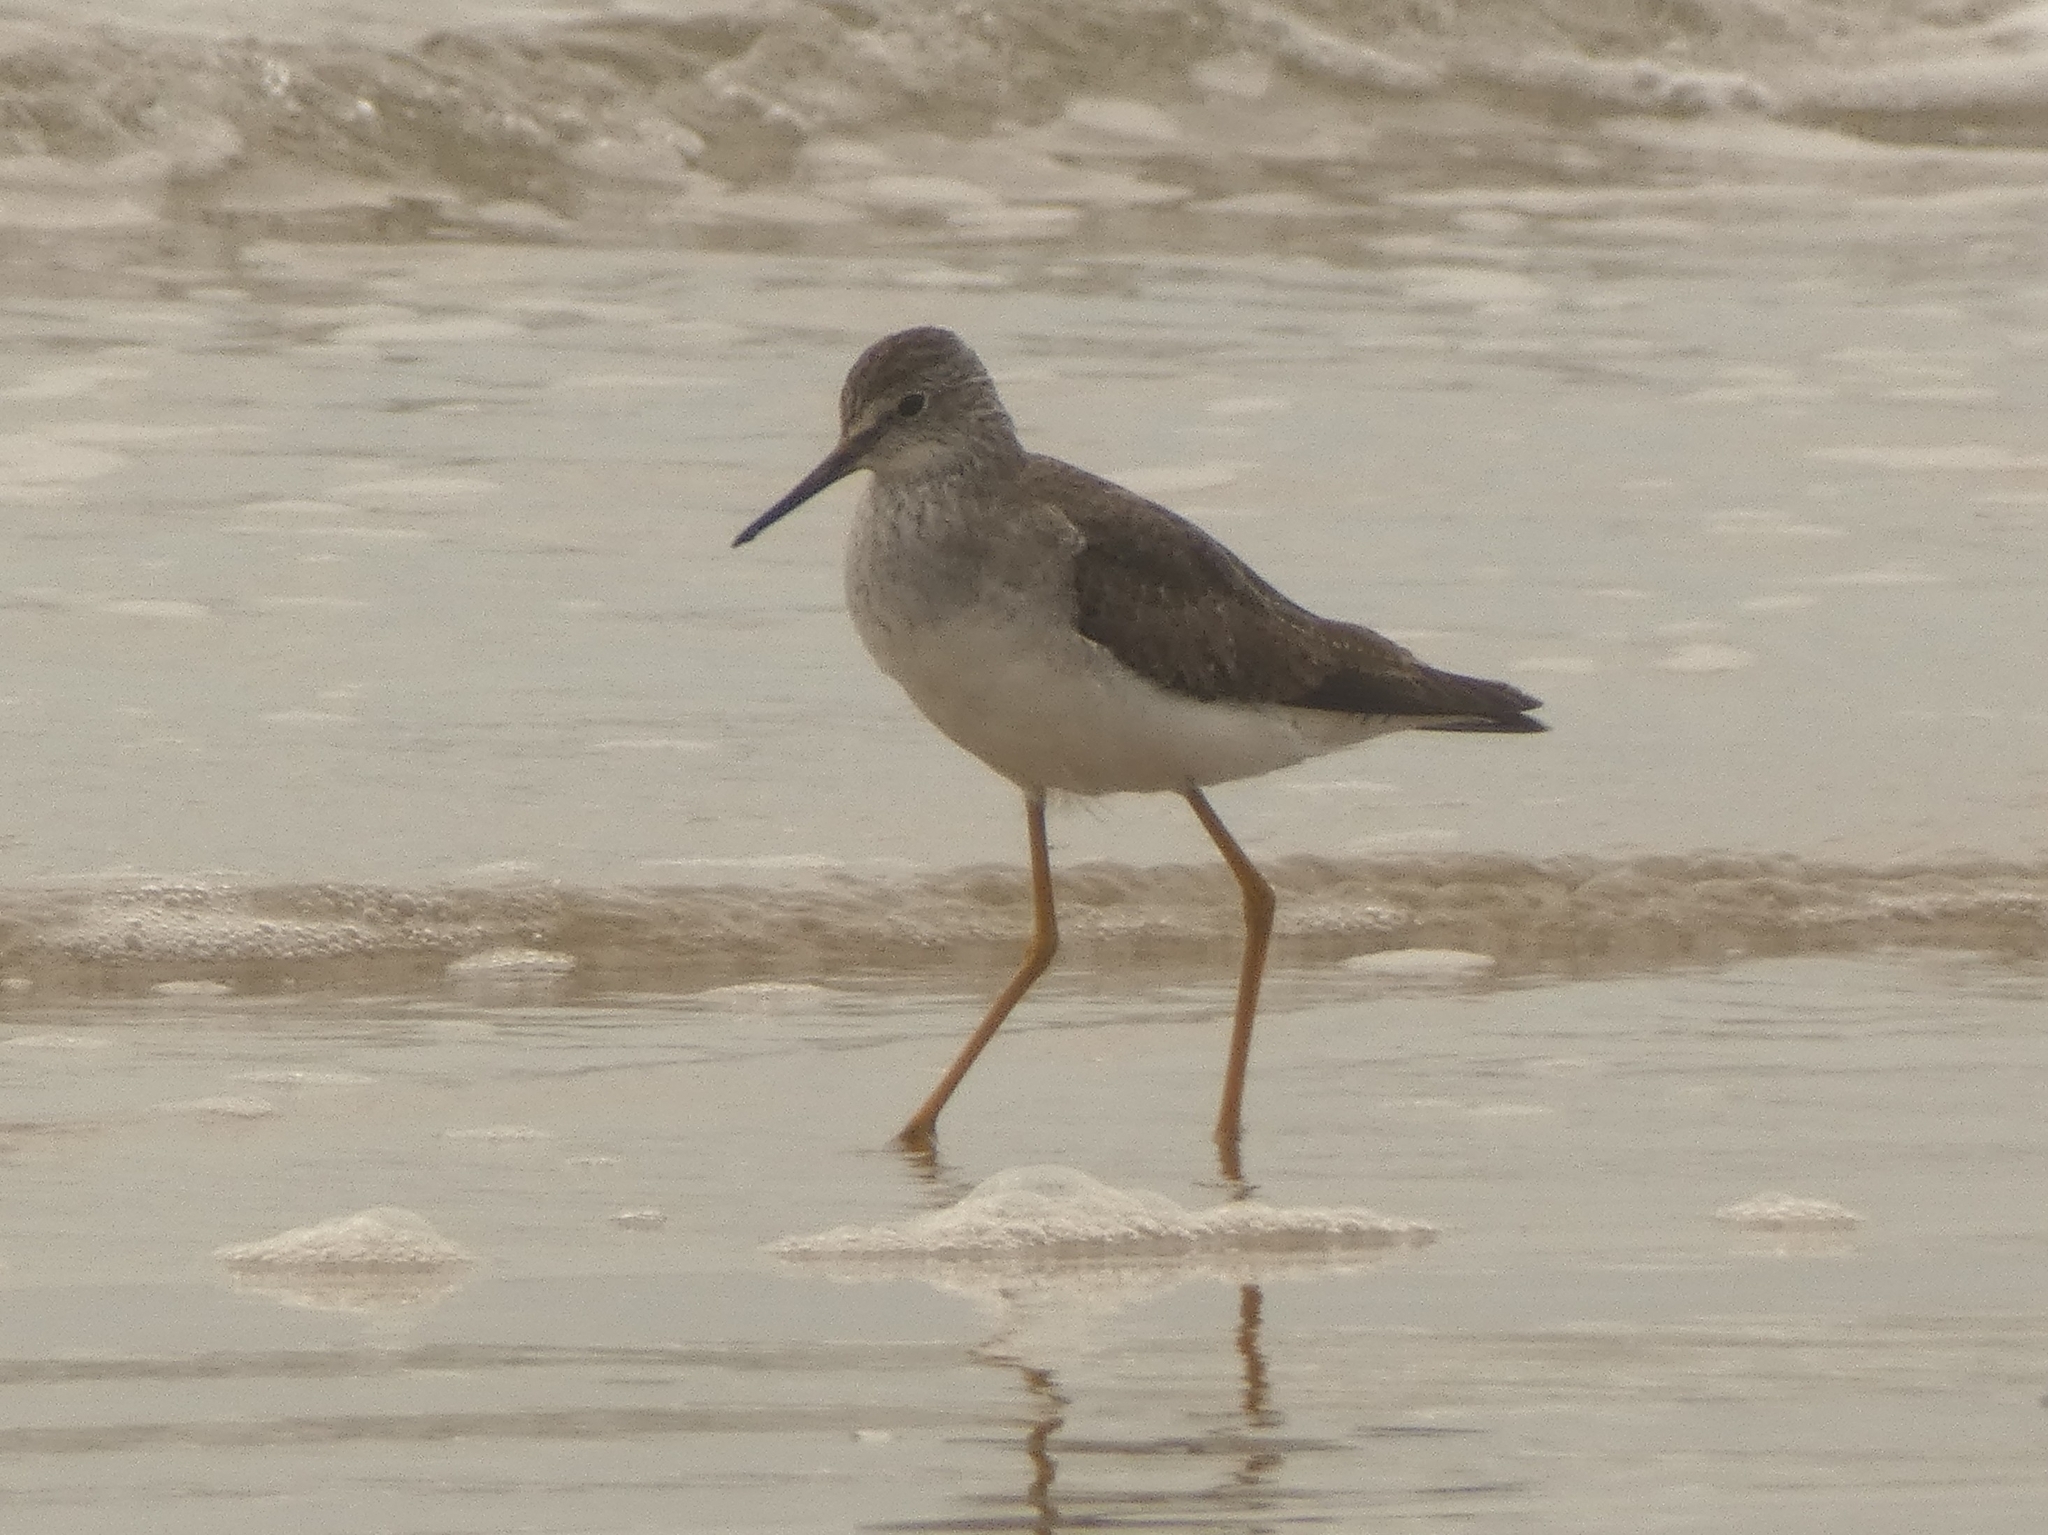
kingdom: Animalia
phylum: Chordata
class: Aves
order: Charadriiformes
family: Scolopacidae
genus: Tringa
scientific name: Tringa flavipes
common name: Lesser yellowlegs
